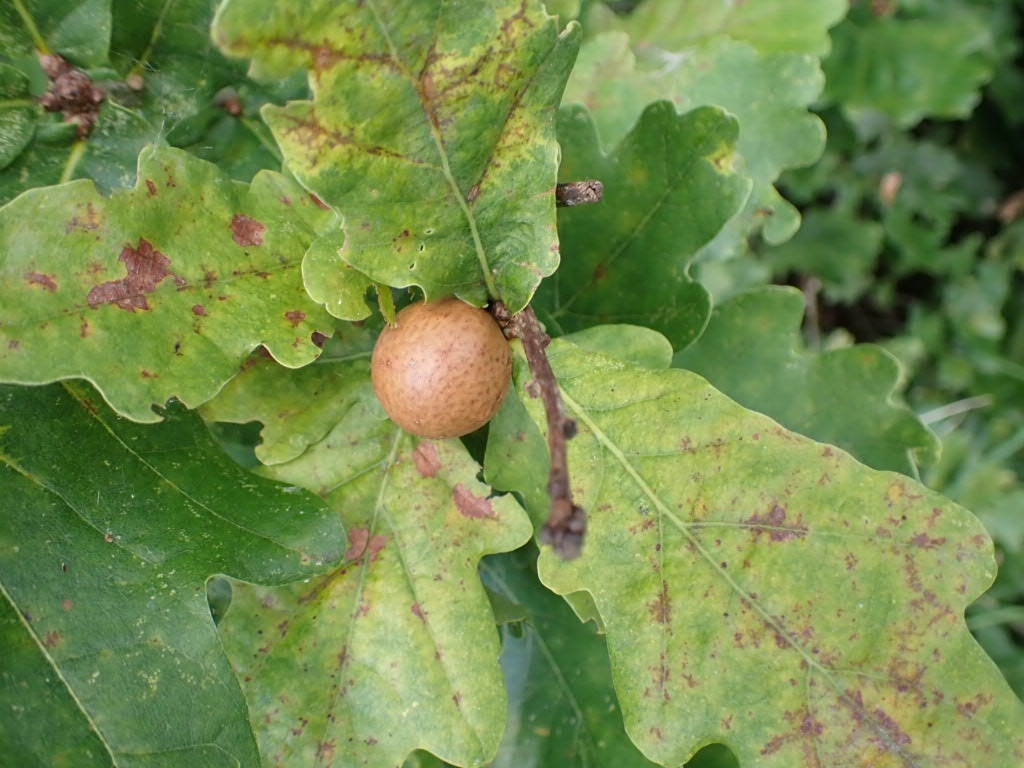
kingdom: Animalia
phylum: Arthropoda
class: Insecta
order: Hymenoptera
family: Cynipidae
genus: Andricus
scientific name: Andricus kollari
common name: Marble gall
